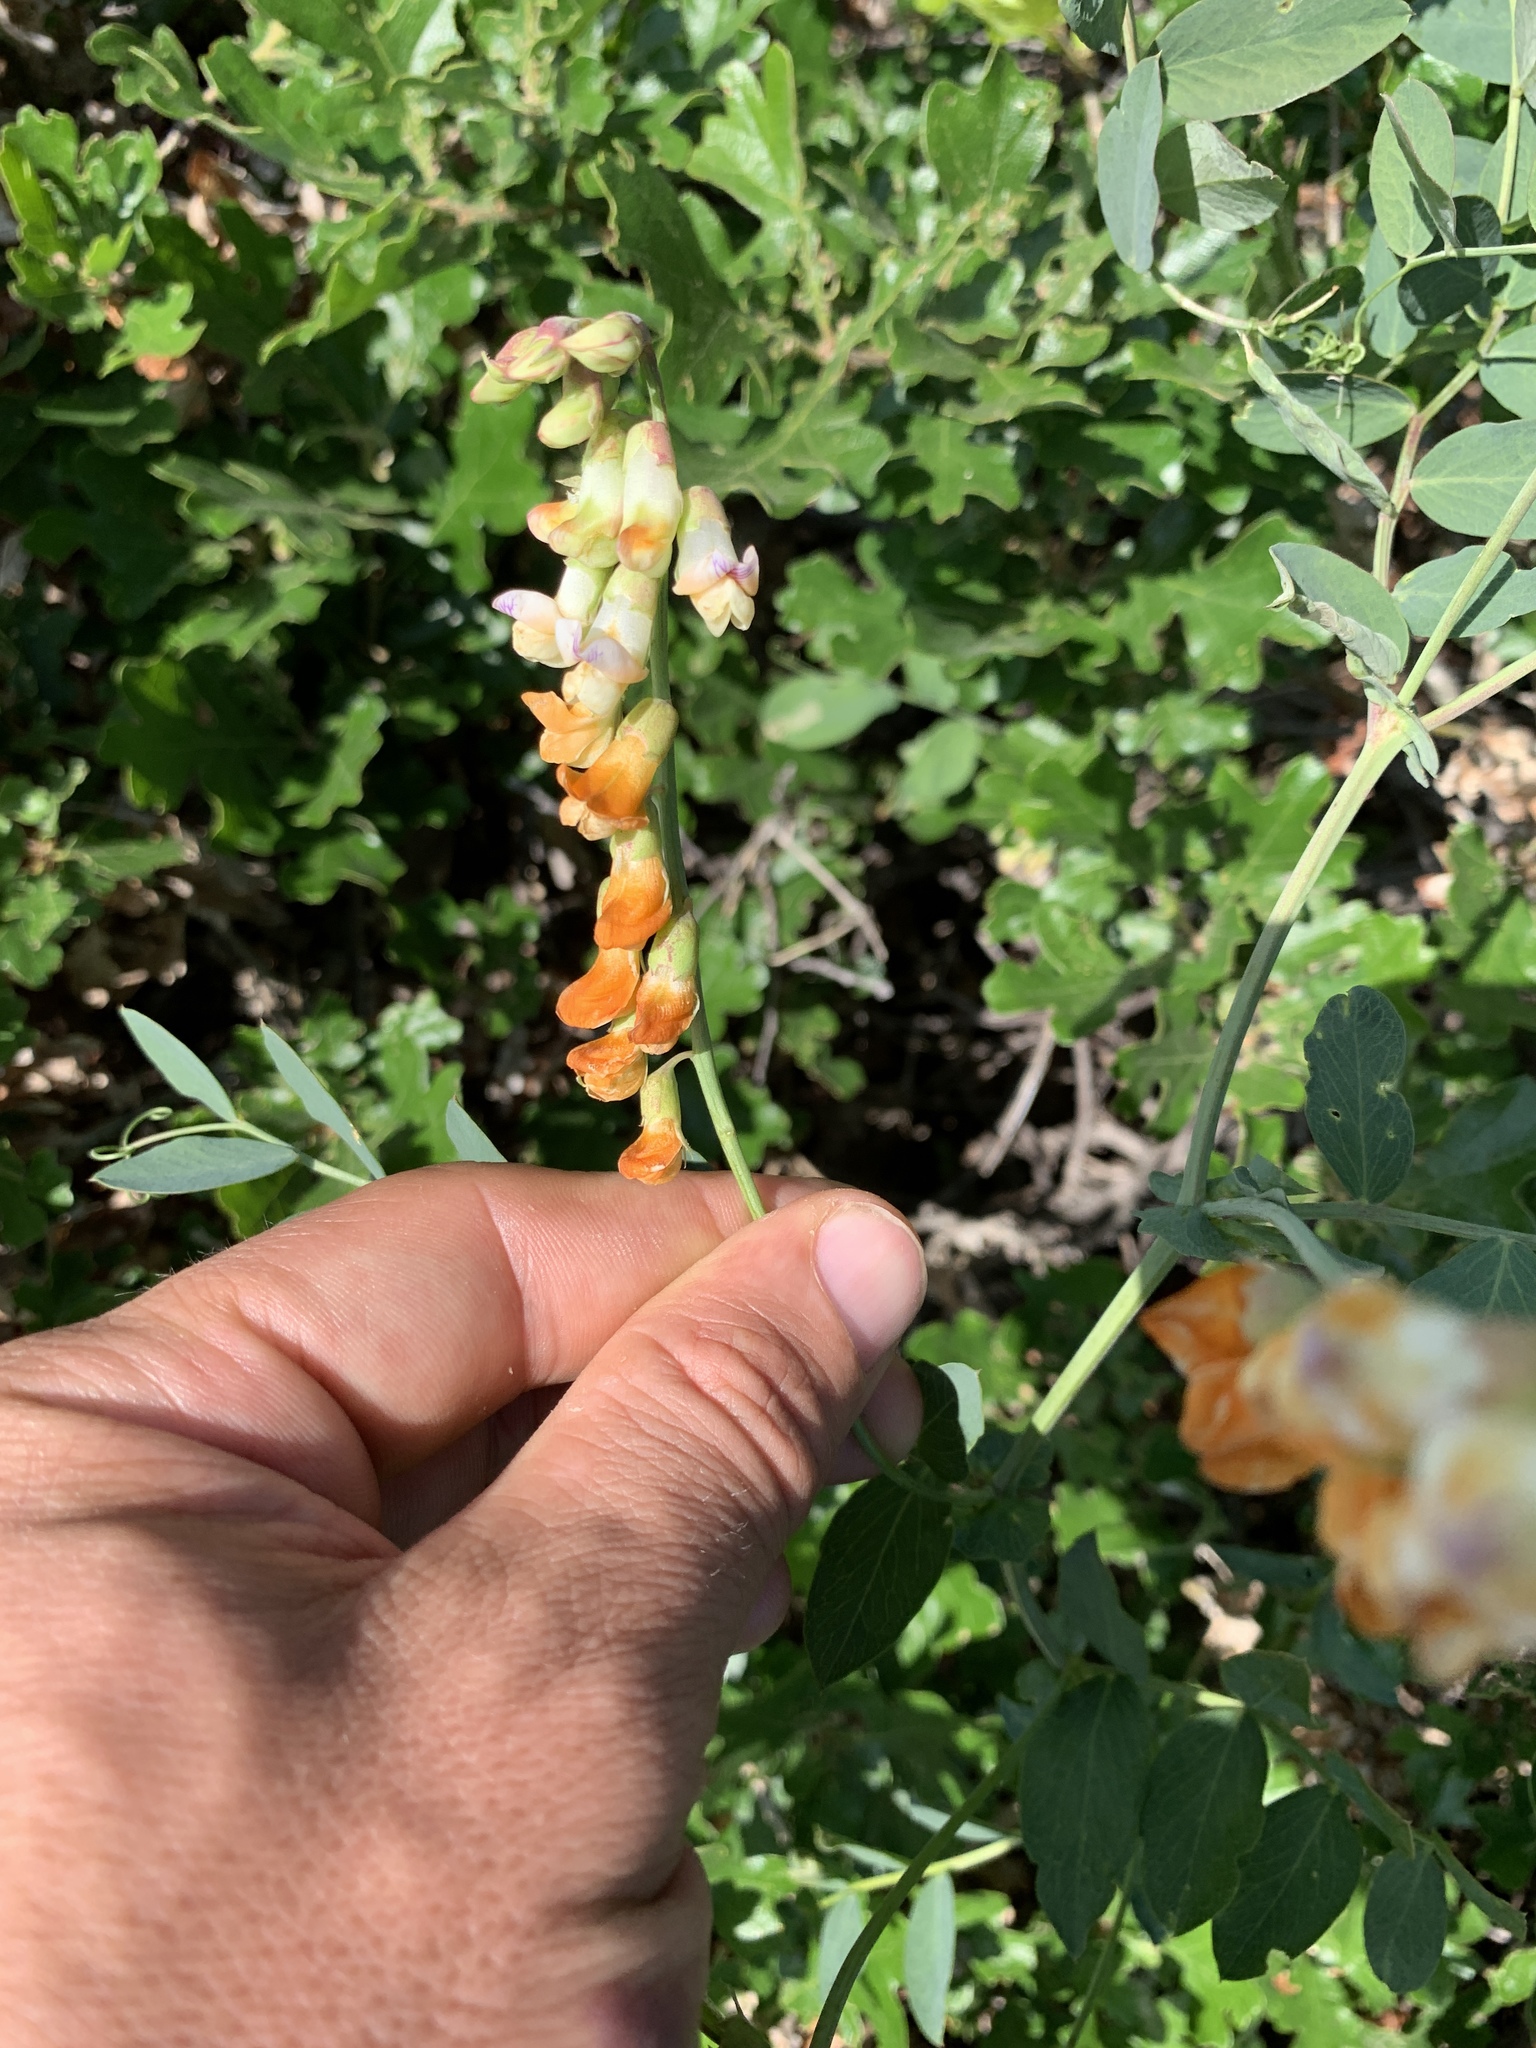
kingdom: Plantae
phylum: Tracheophyta
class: Magnoliopsida
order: Fabales
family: Fabaceae
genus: Lathyrus
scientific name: Lathyrus sulphureus
